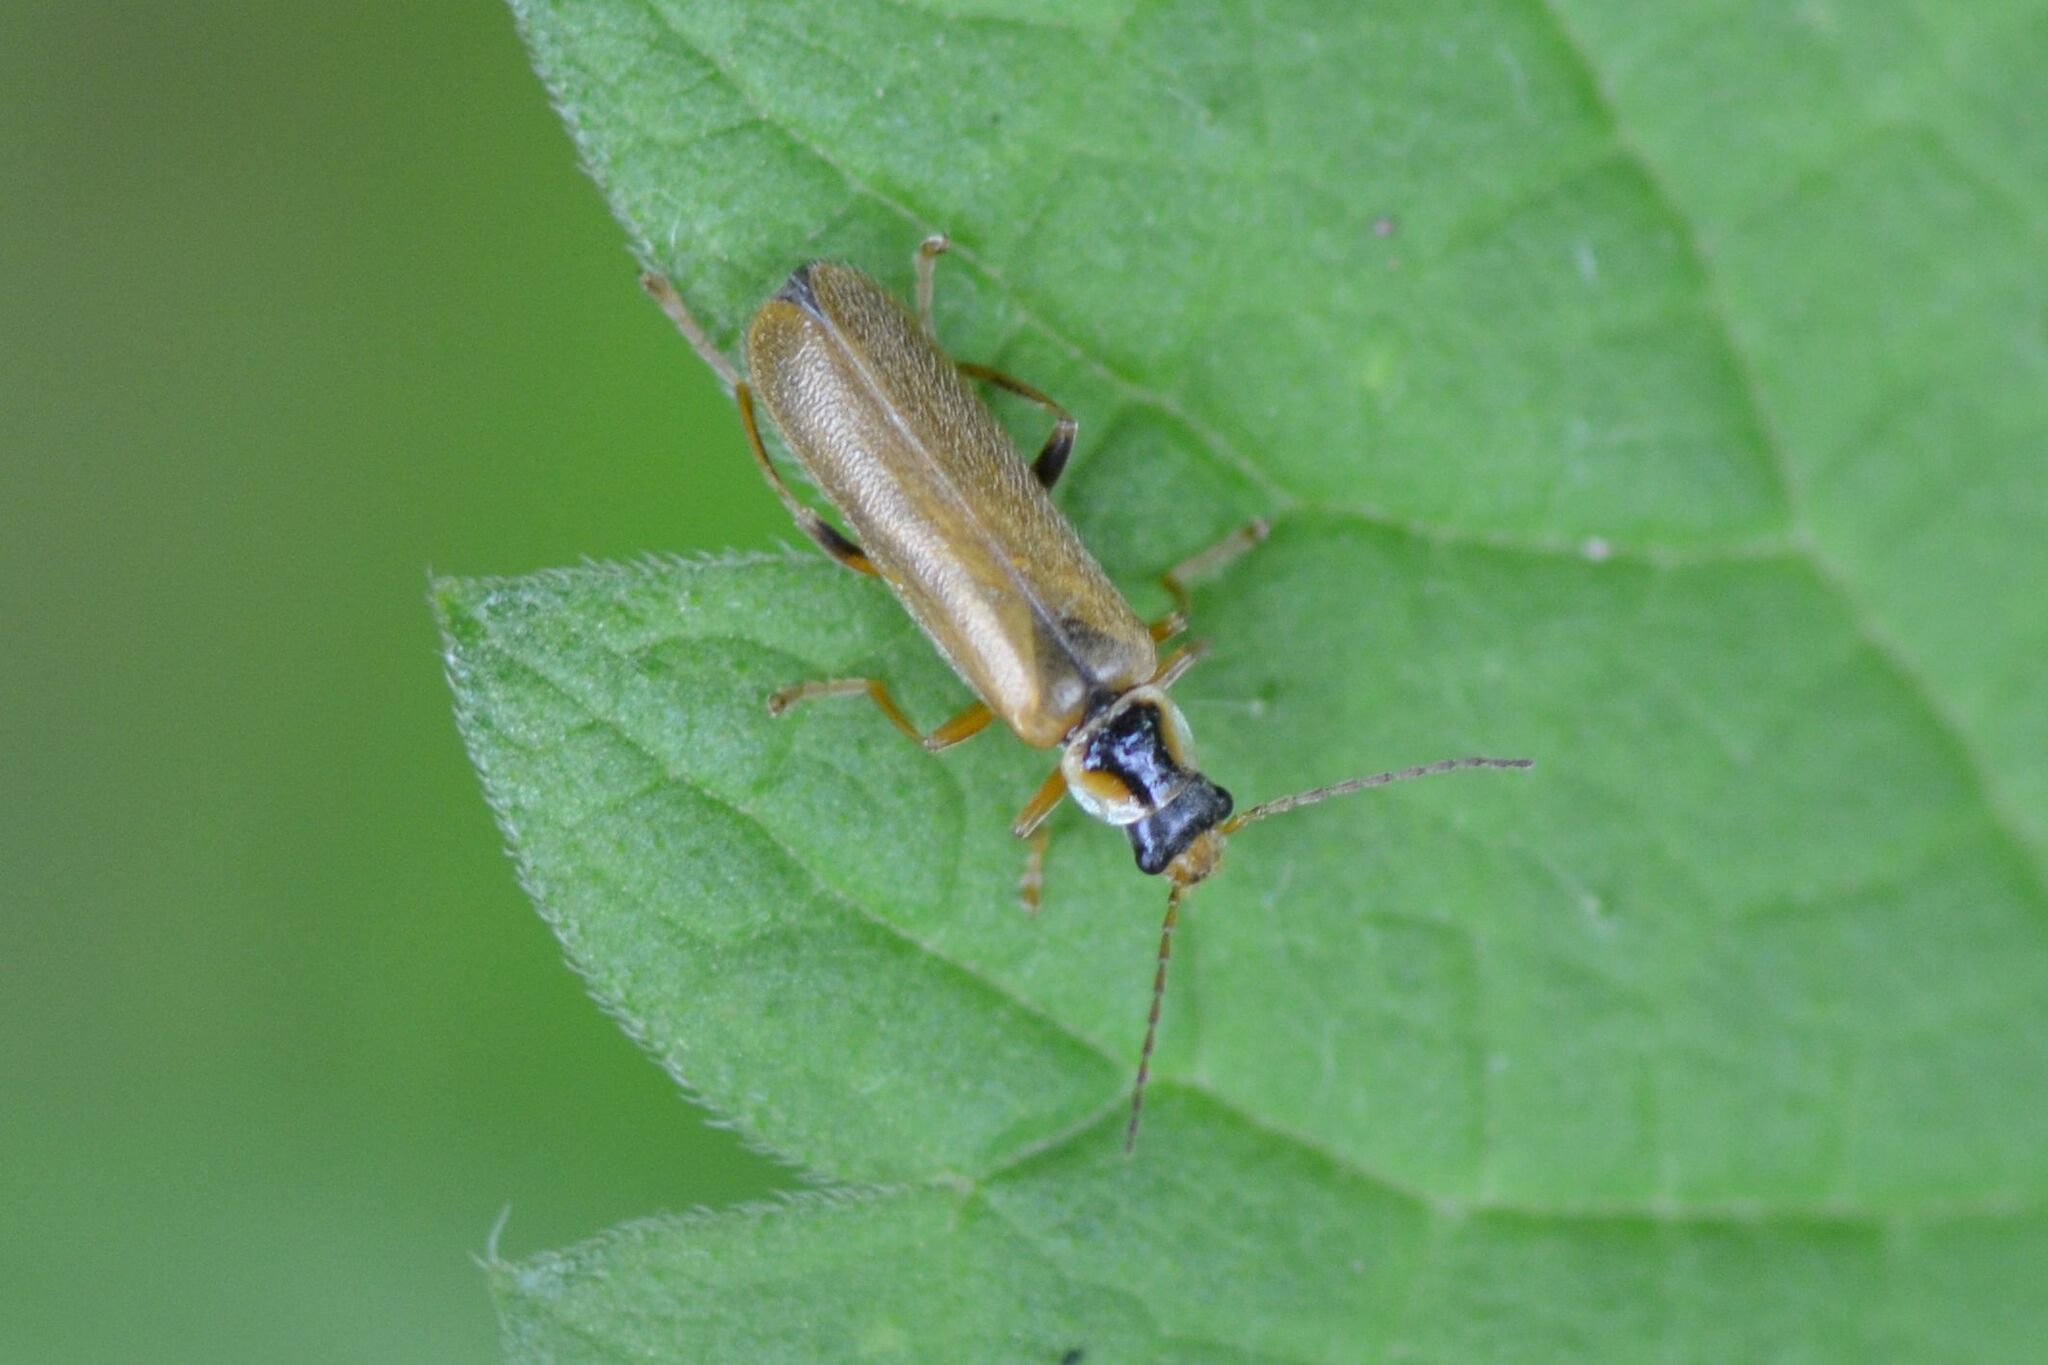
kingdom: Animalia
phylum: Arthropoda
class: Insecta
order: Coleoptera
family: Cantharidae
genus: Cantharis
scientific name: Cantharis decipiens
